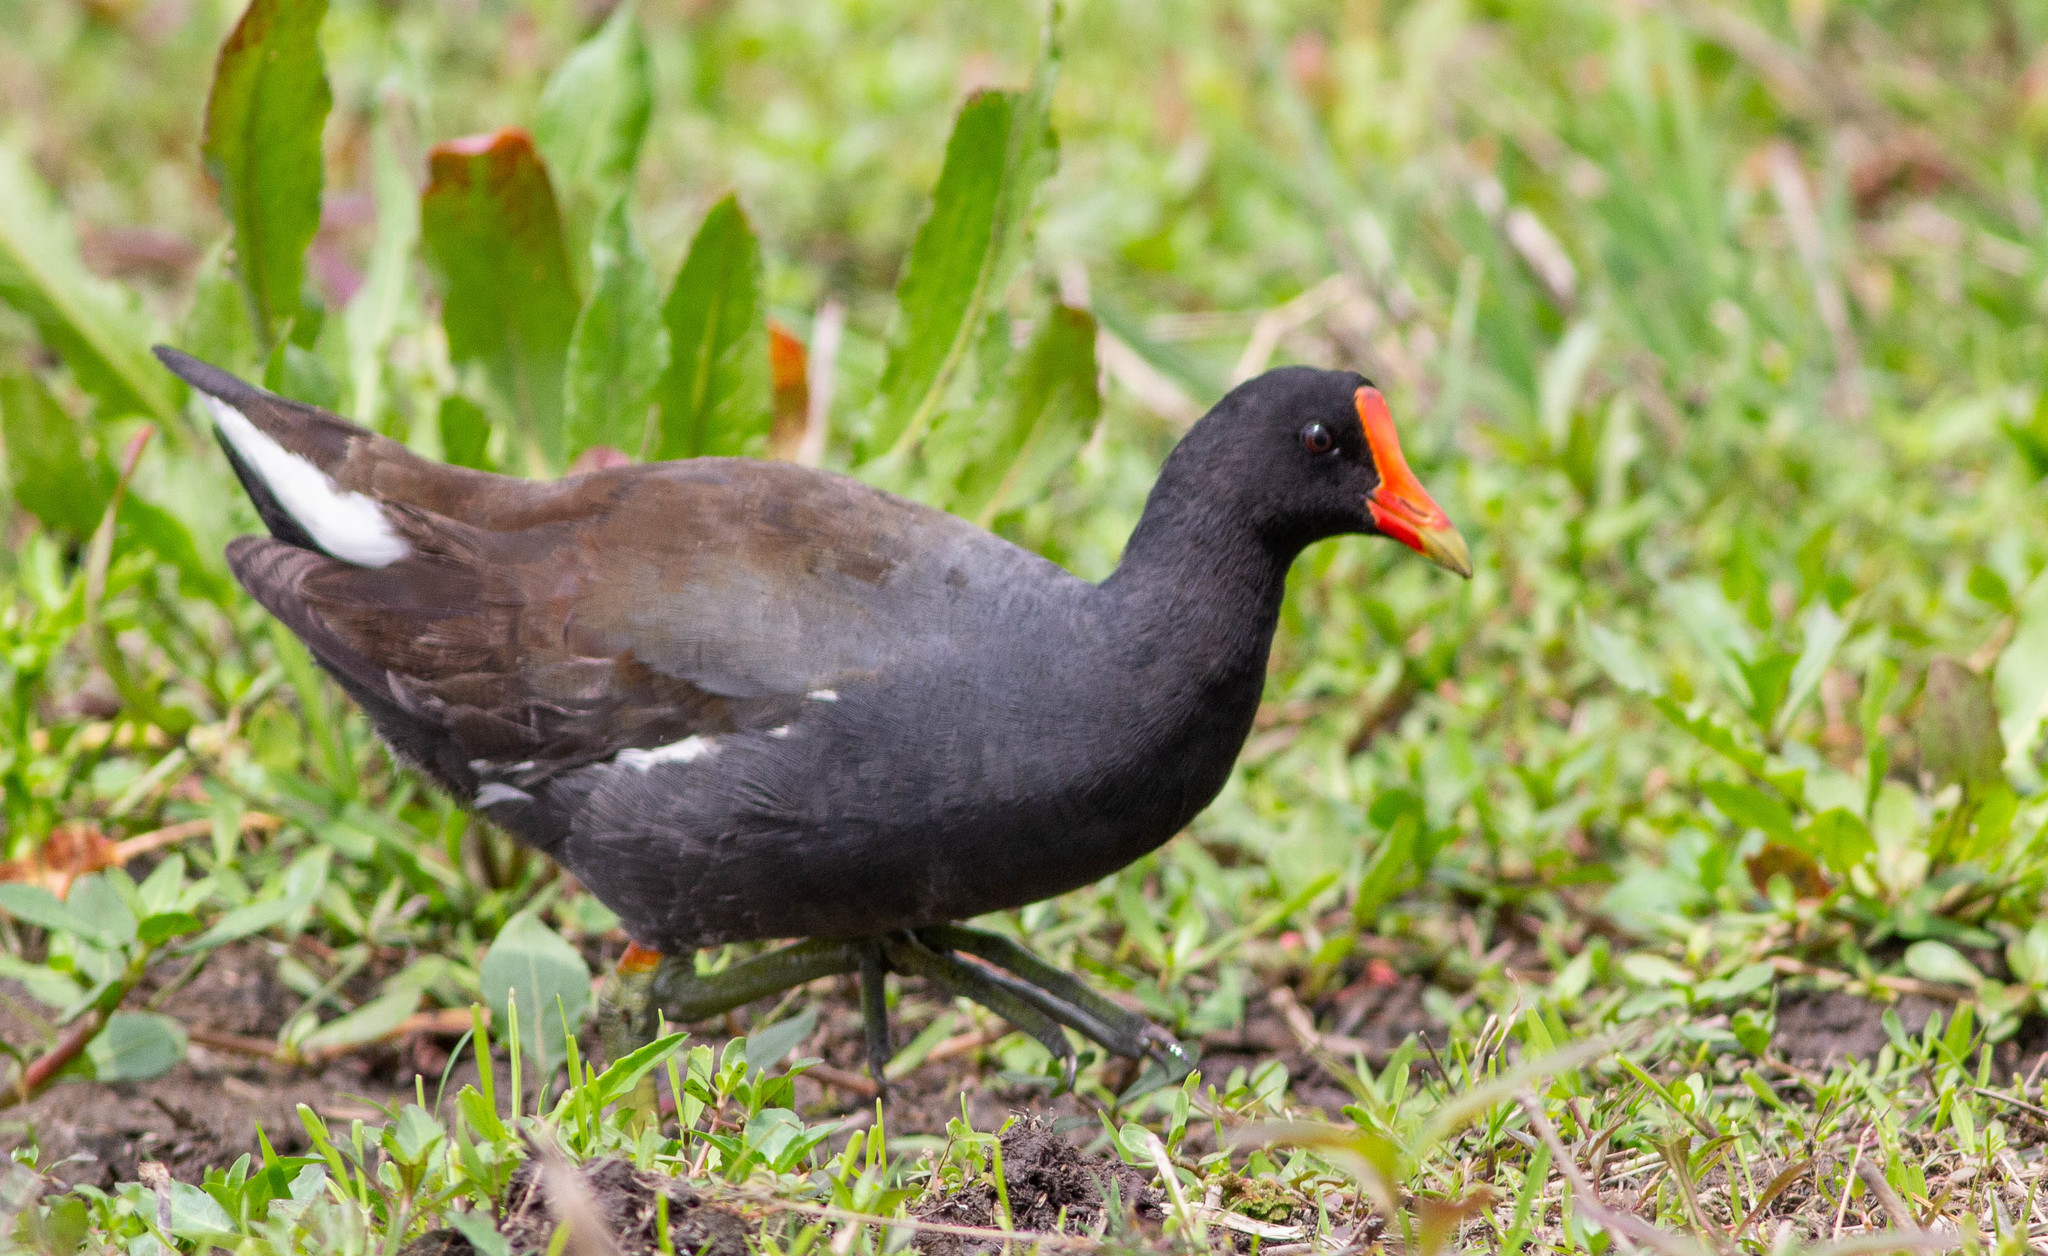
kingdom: Animalia
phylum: Chordata
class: Aves
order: Gruiformes
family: Rallidae
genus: Gallinula
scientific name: Gallinula chloropus
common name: Common moorhen
